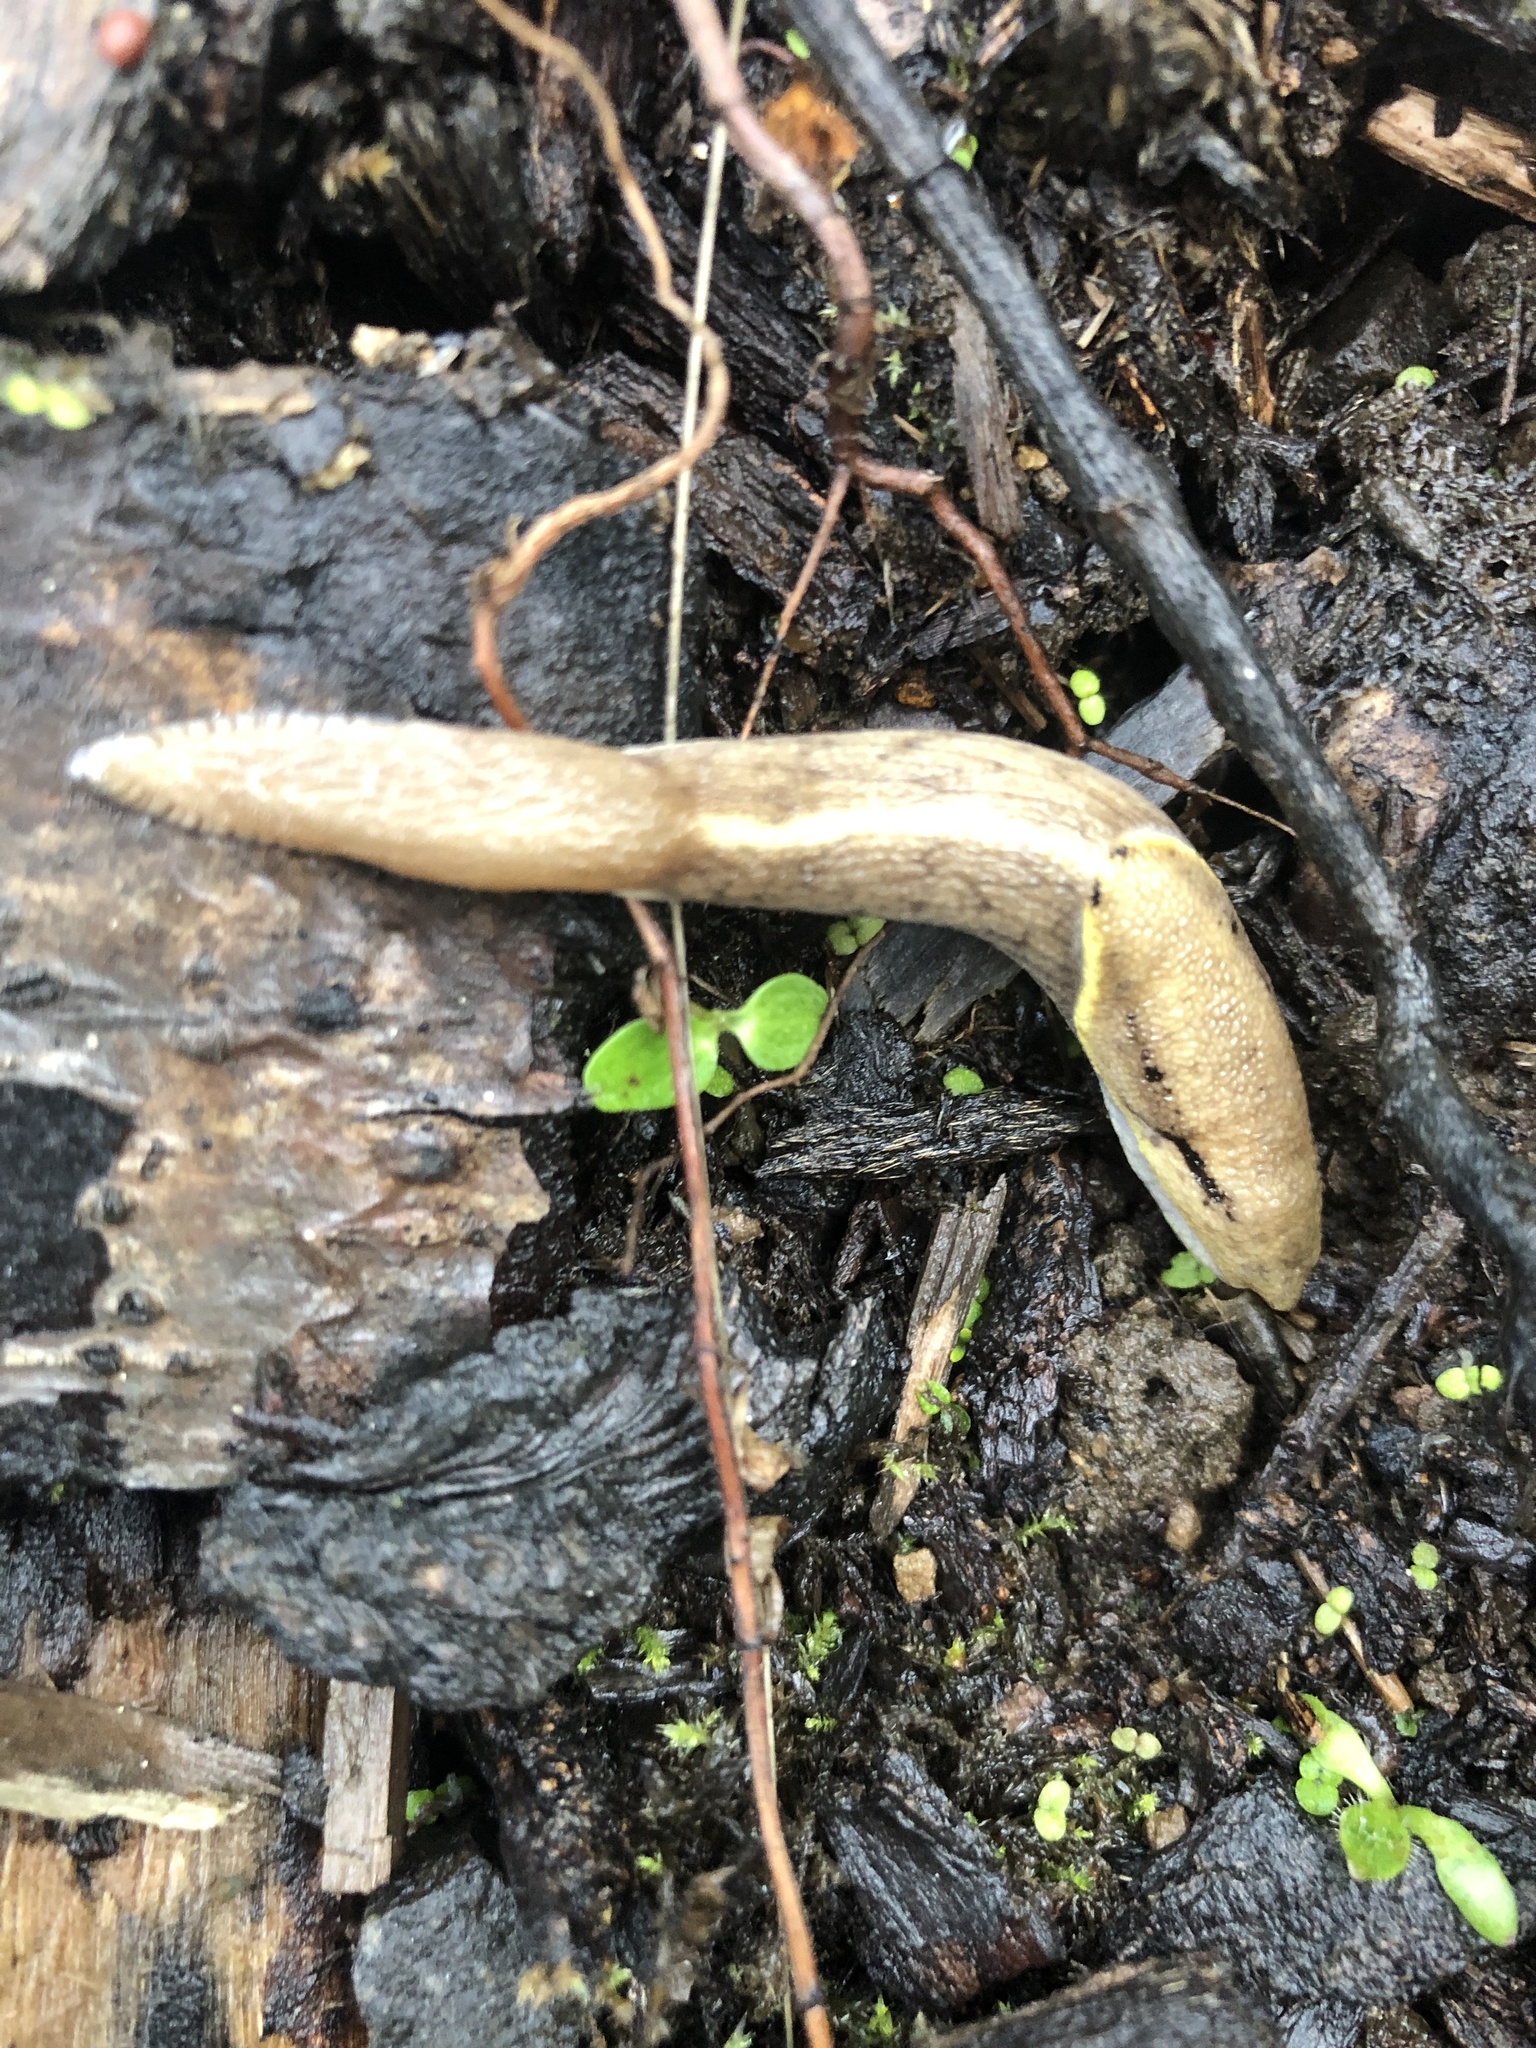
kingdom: Animalia
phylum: Mollusca
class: Gastropoda
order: Stylommatophora
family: Ariolimacidae
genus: Prophysaon
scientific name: Prophysaon foliolatum
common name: Yellow-bordered taildropper
